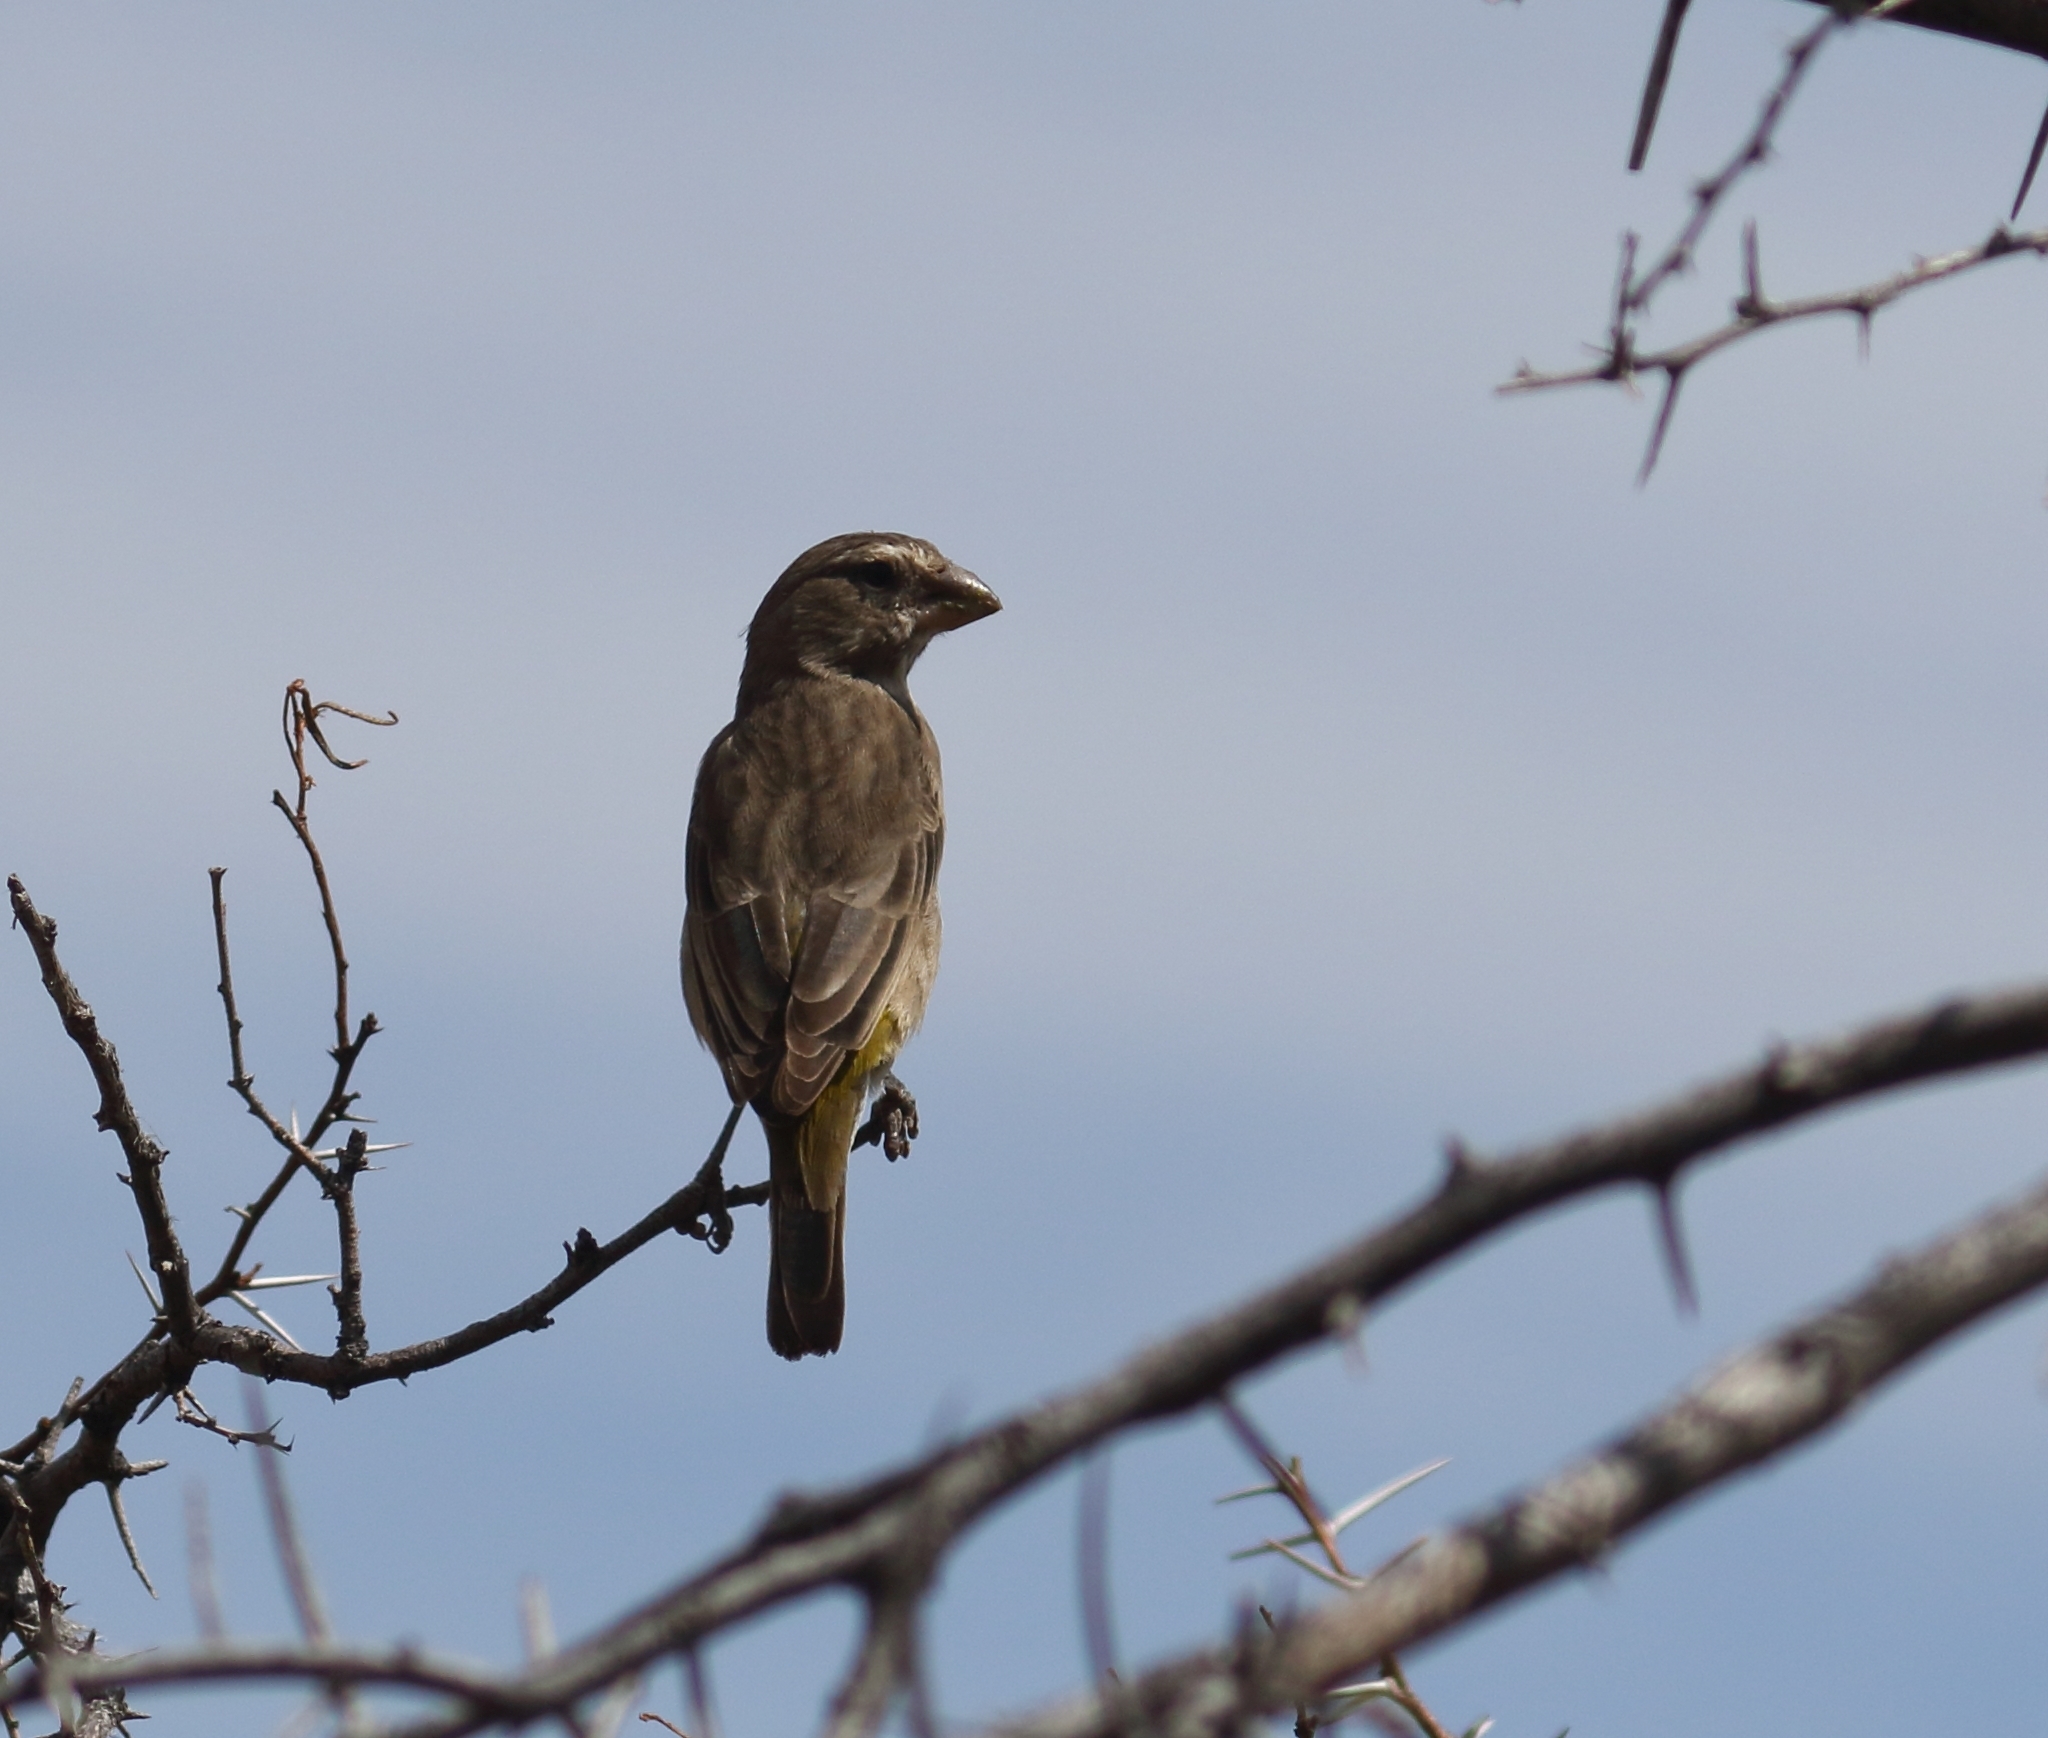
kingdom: Animalia
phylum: Chordata
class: Aves
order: Passeriformes
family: Fringillidae
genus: Crithagra
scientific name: Crithagra albogularis
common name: White-throated canary
